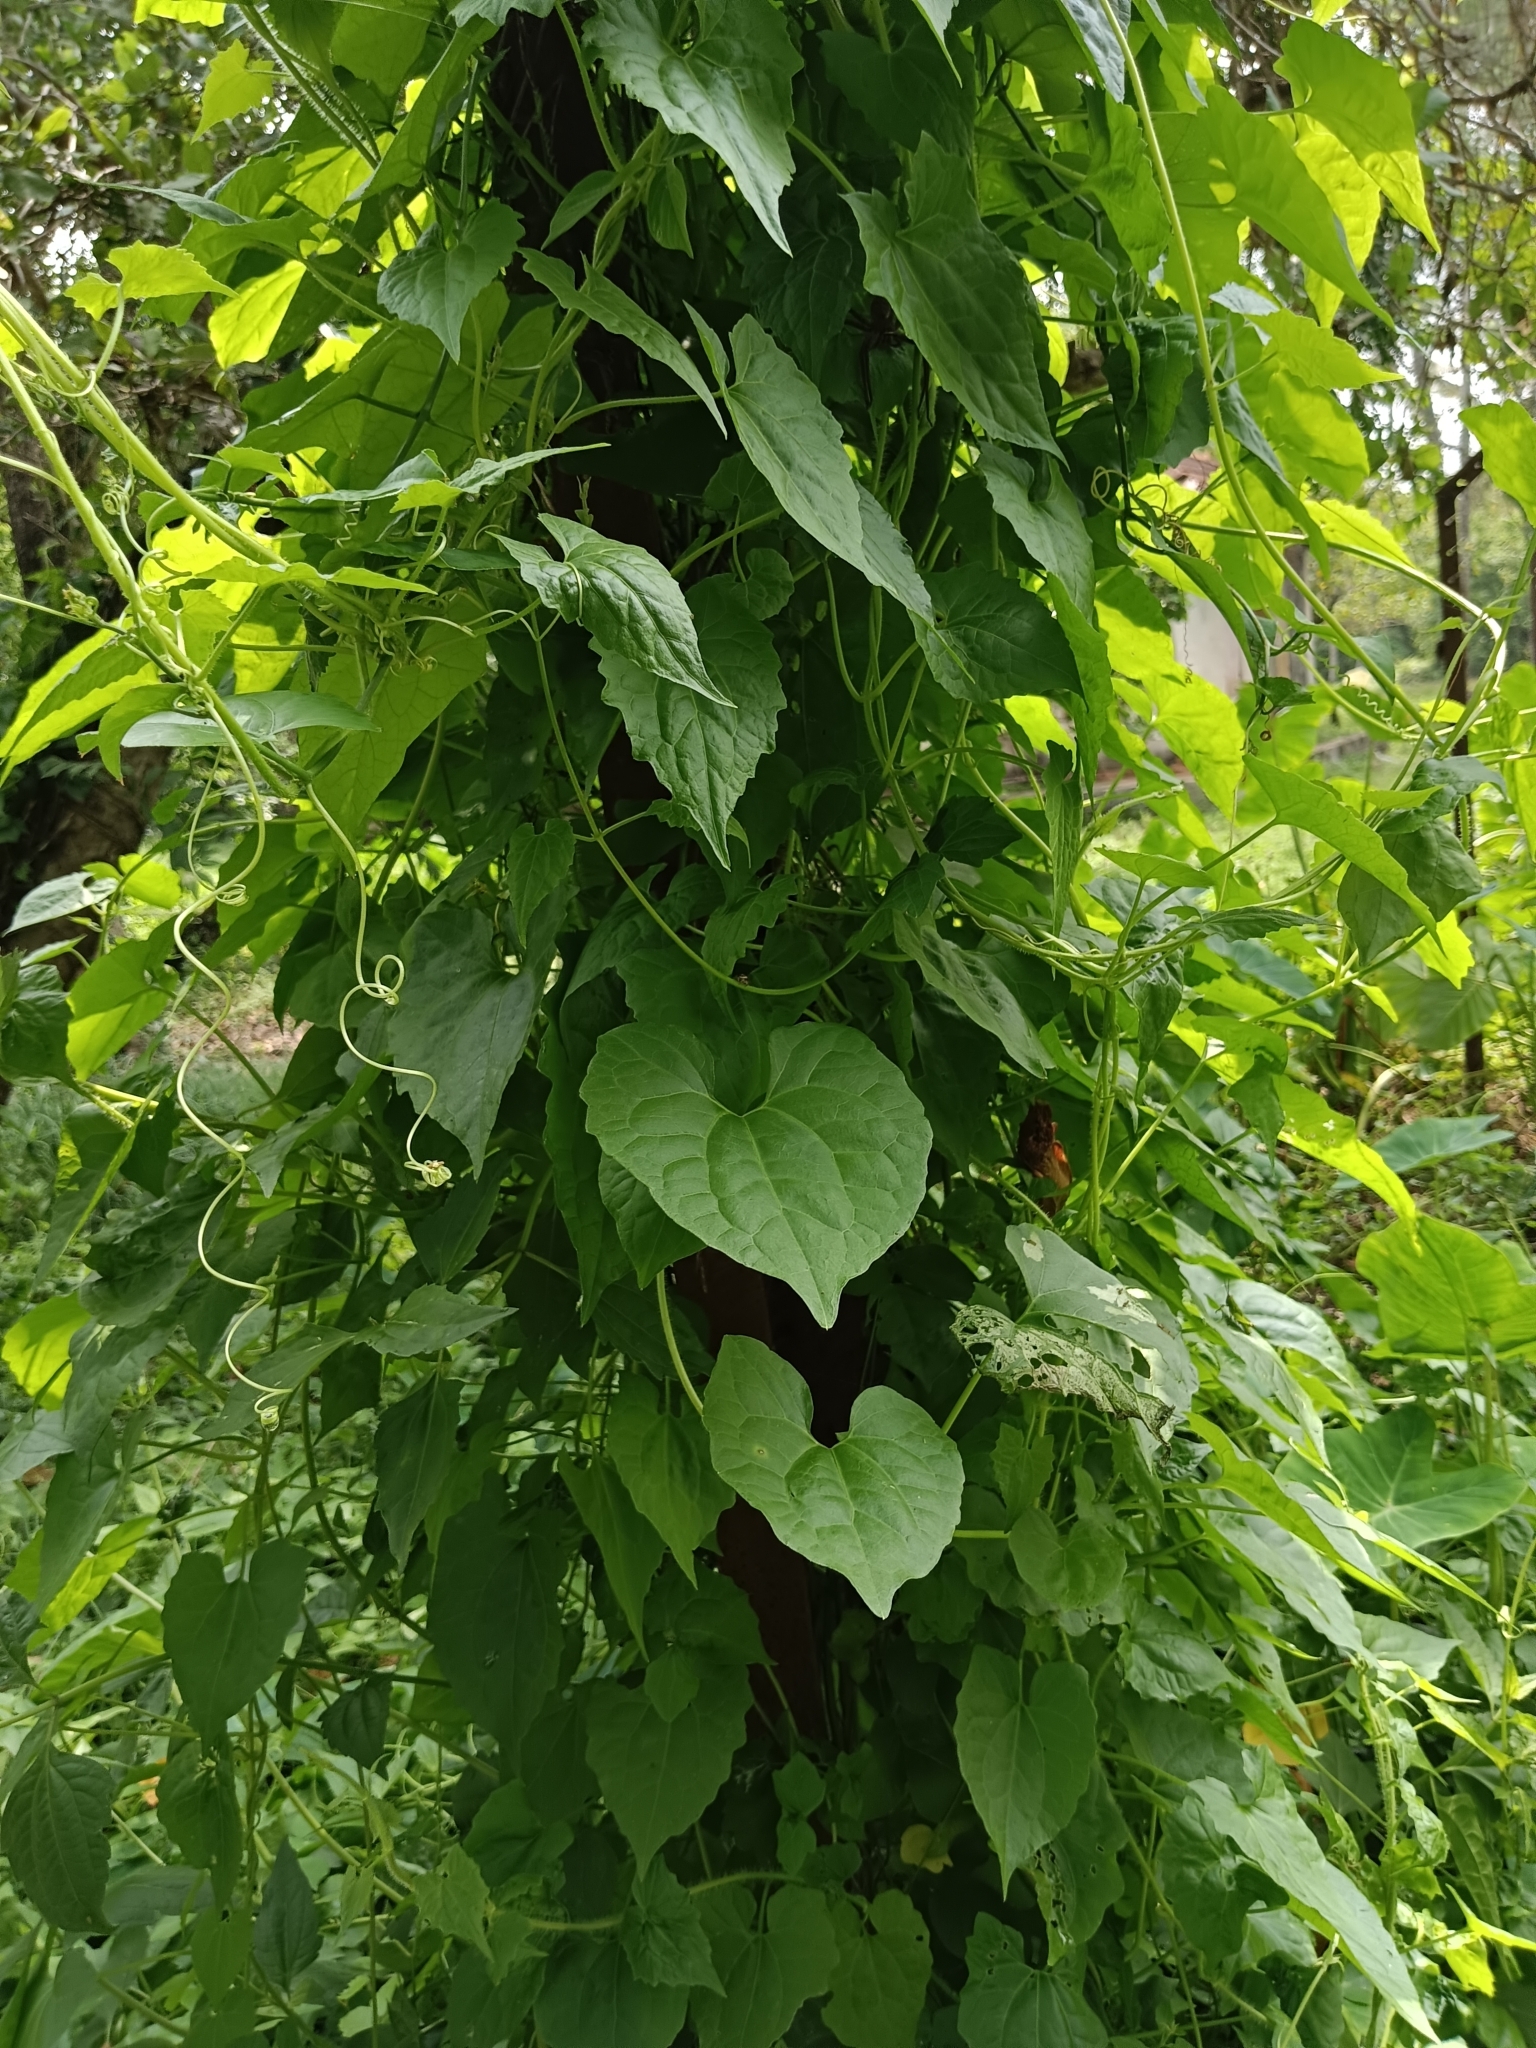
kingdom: Plantae
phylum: Tracheophyta
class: Magnoliopsida
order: Asterales
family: Asteraceae
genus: Mikania
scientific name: Mikania micrantha
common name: Mile-a-minute
